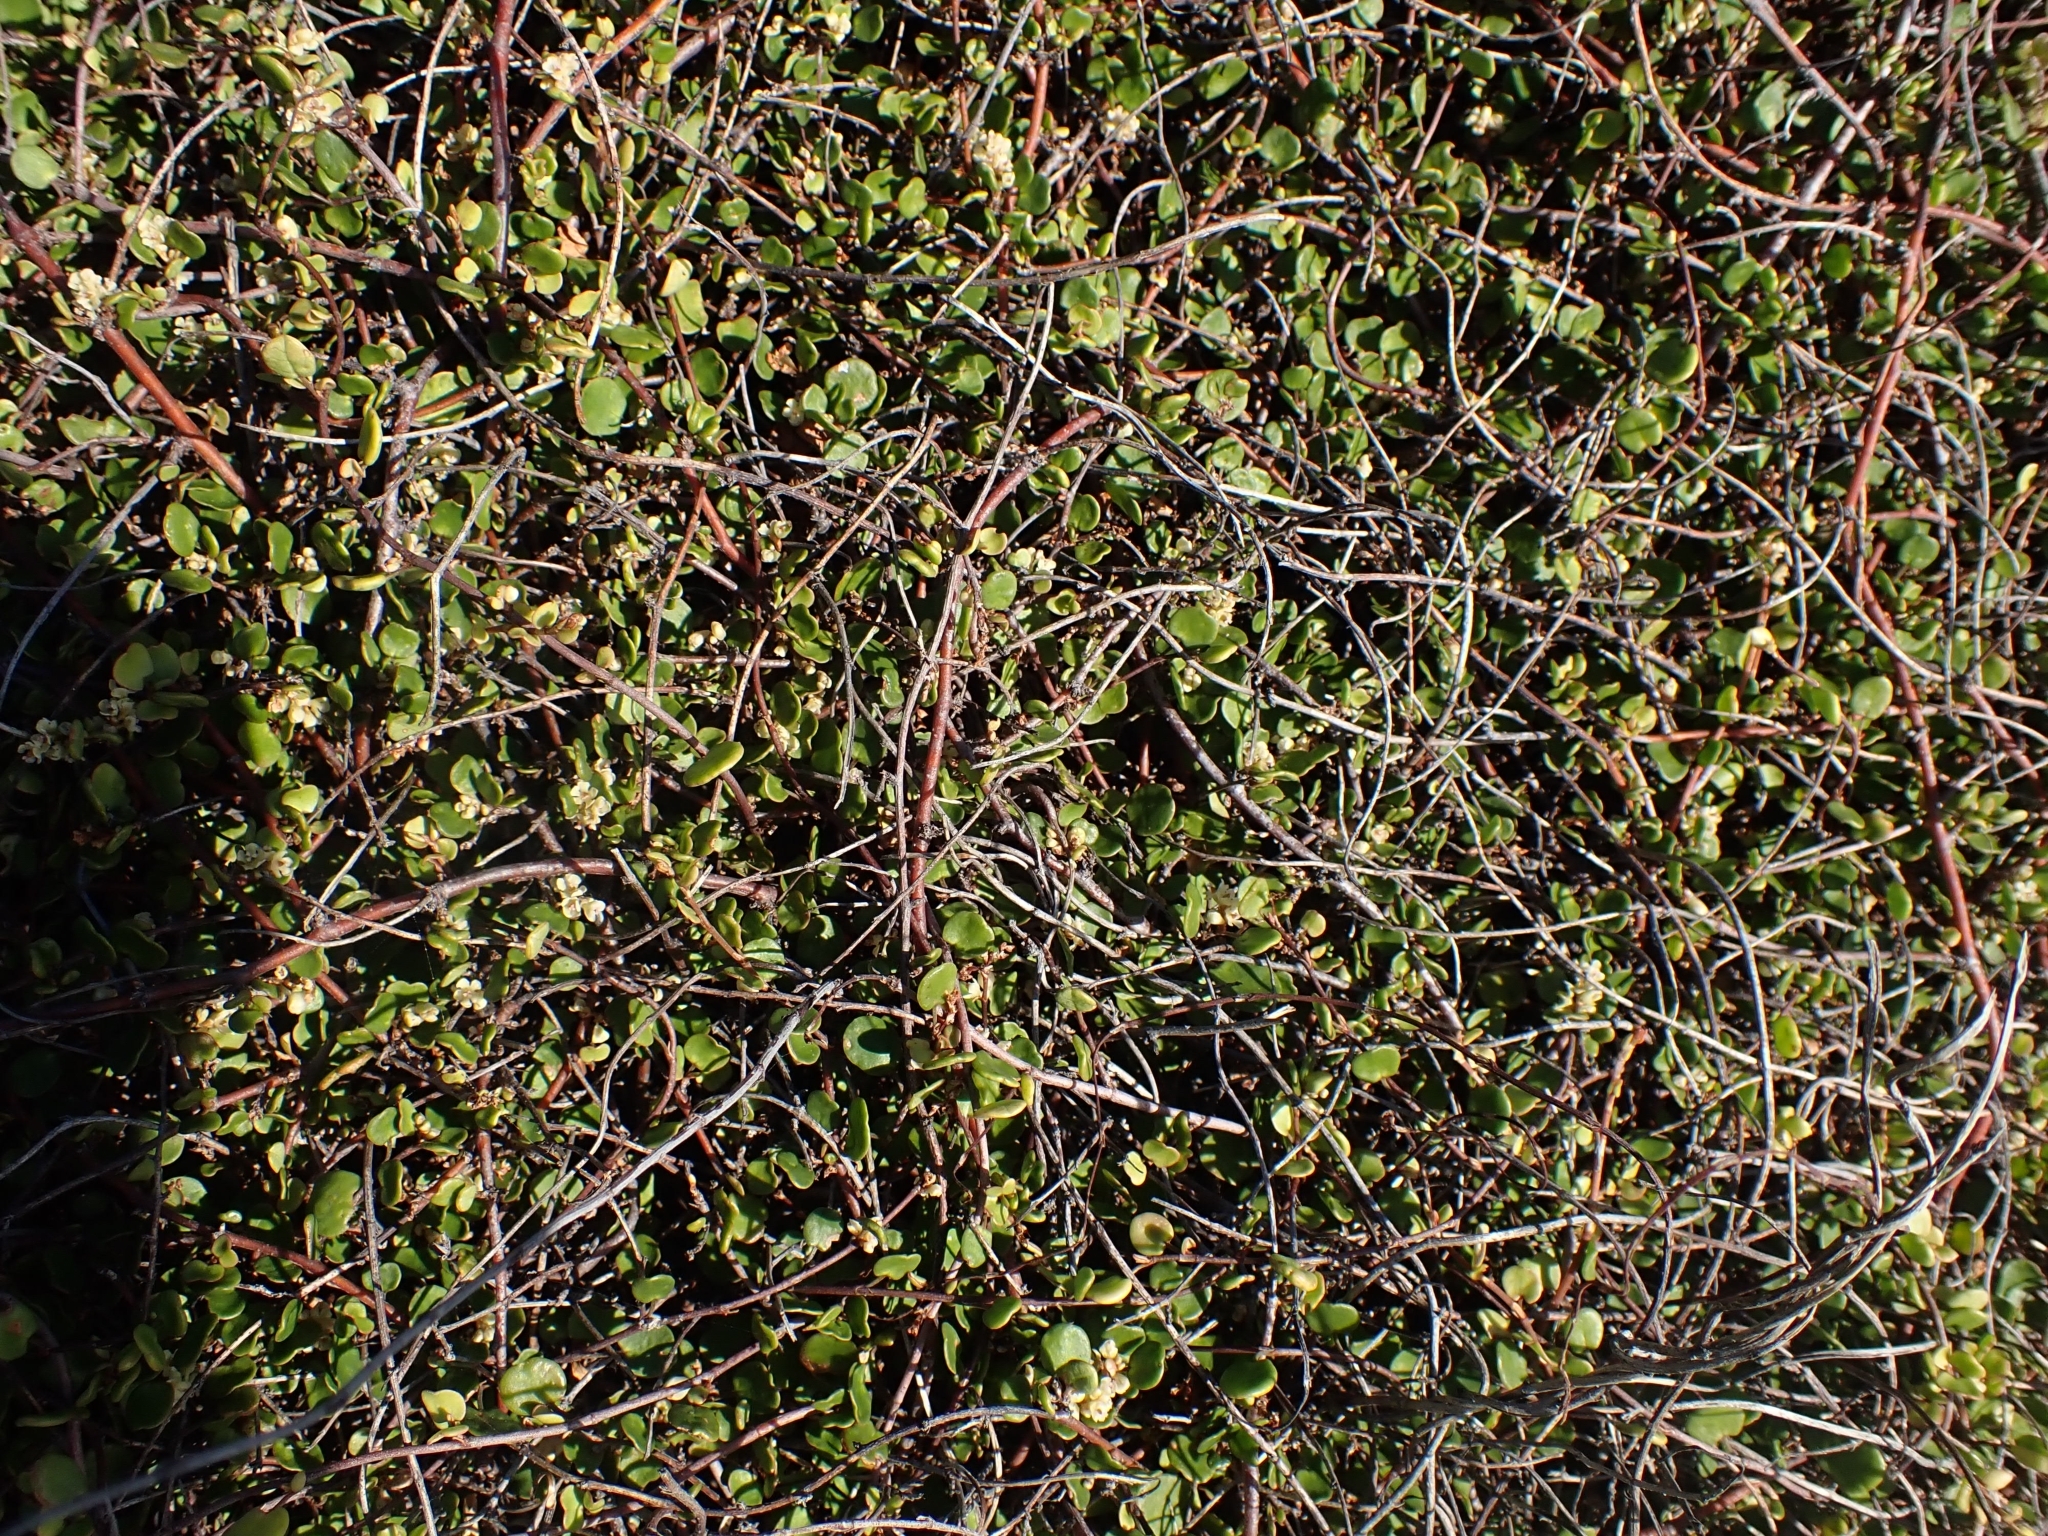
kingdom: Plantae
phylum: Tracheophyta
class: Magnoliopsida
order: Caryophyllales
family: Polygonaceae
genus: Muehlenbeckia
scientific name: Muehlenbeckia axillaris
